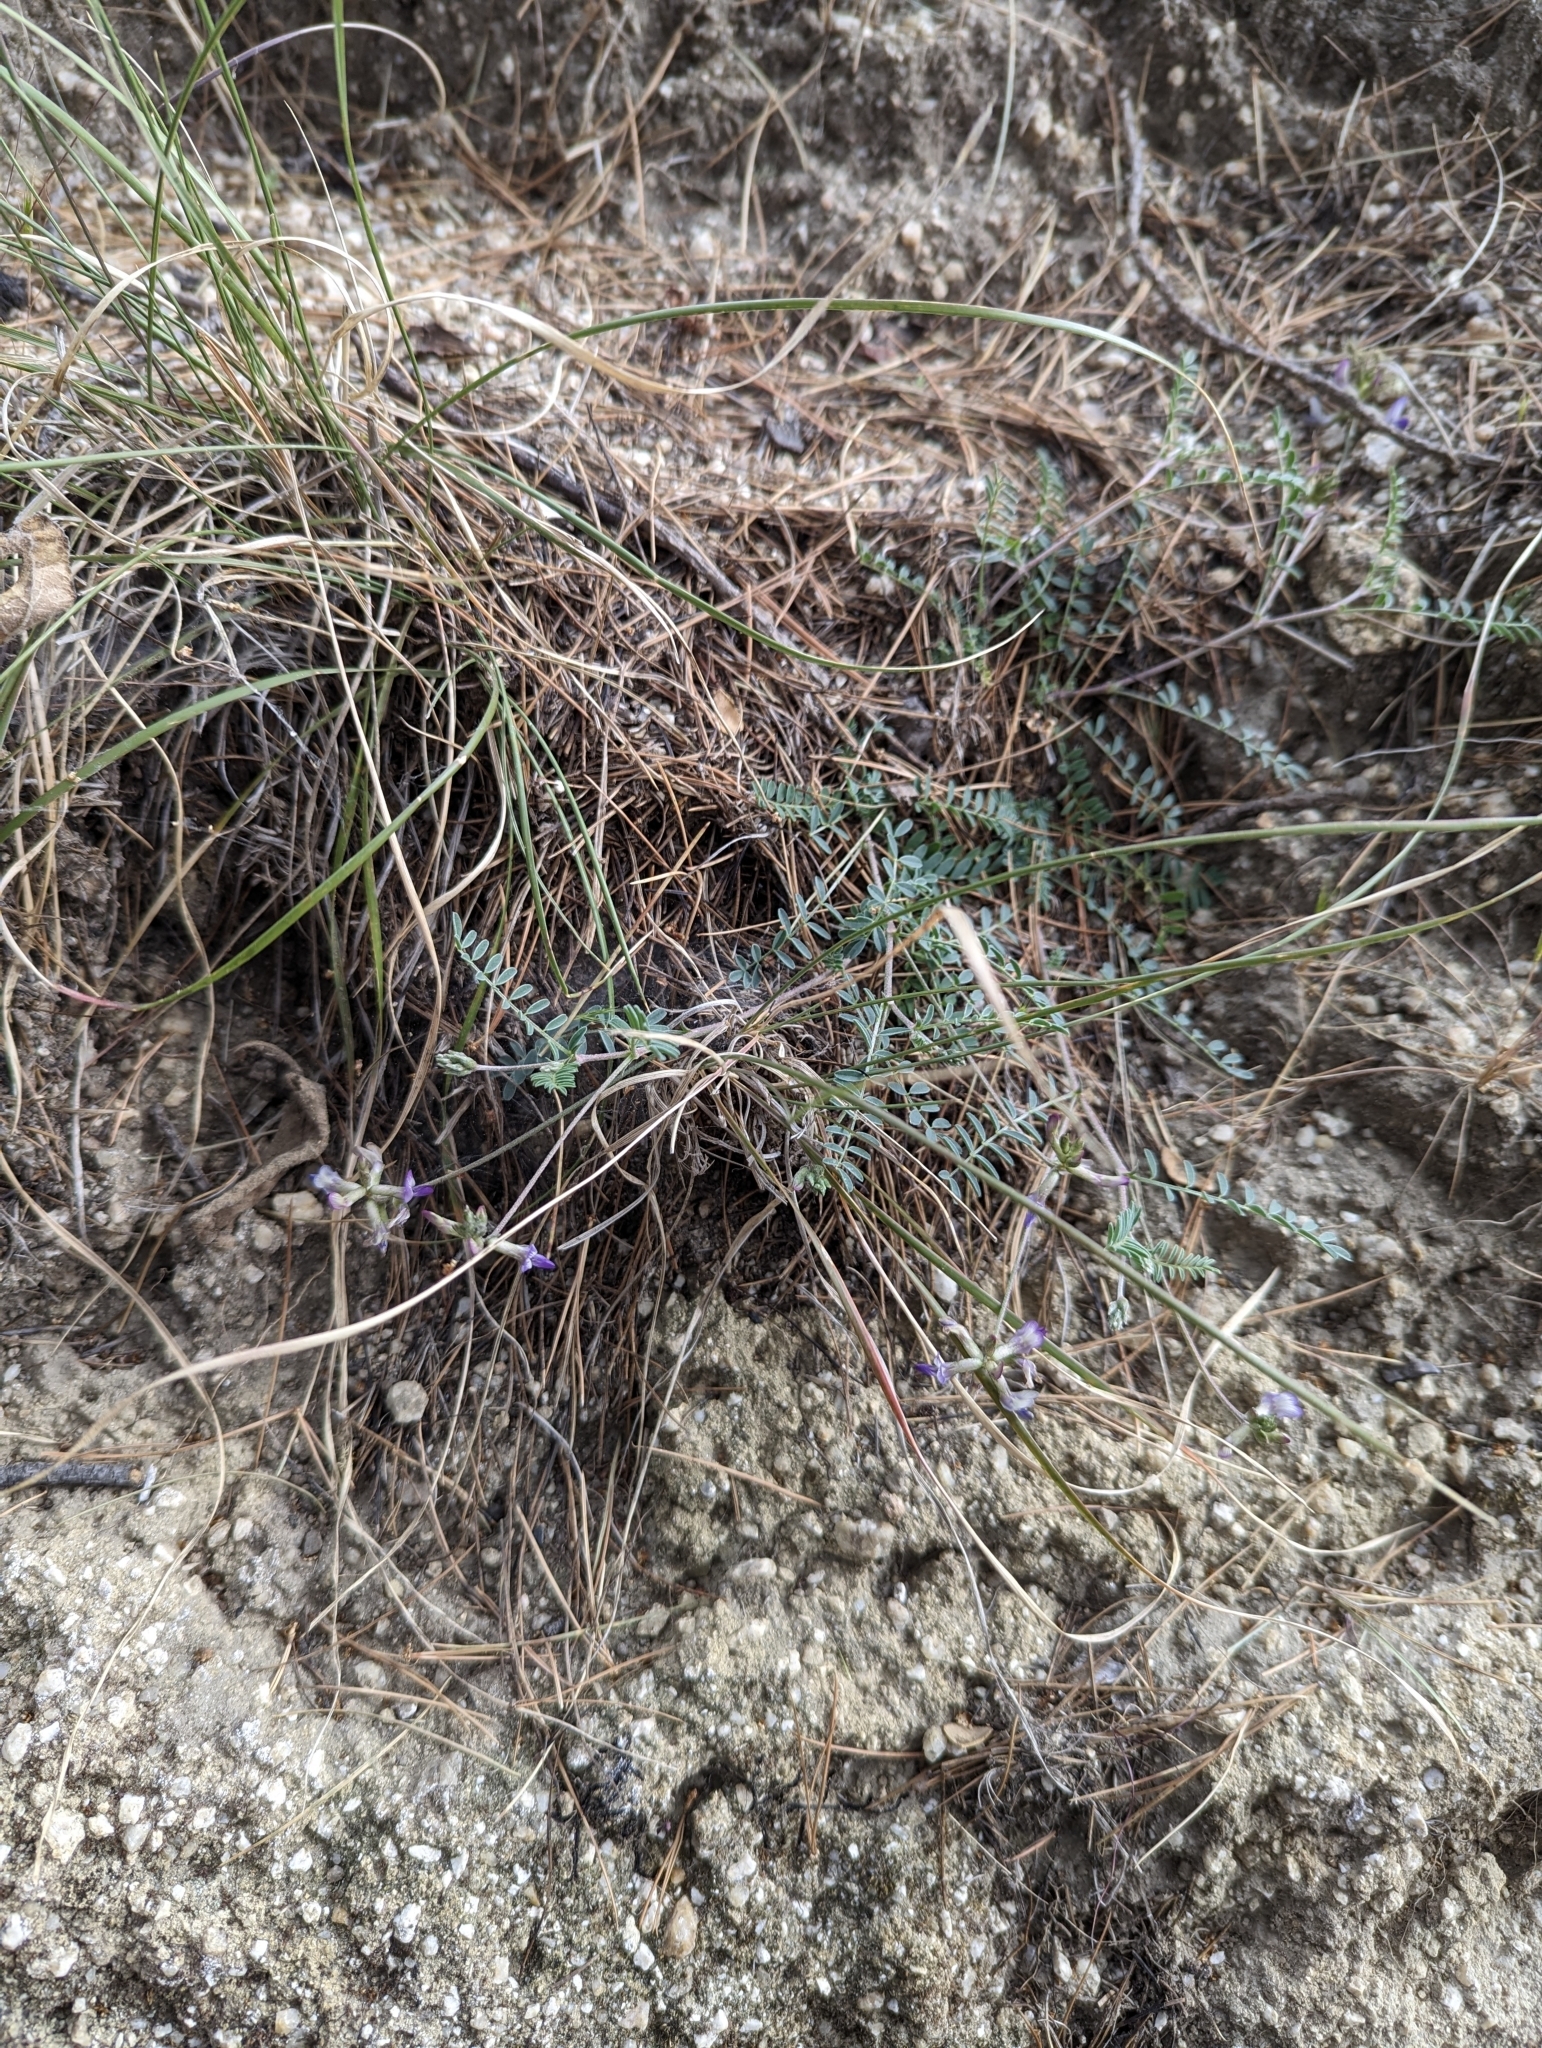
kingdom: Plantae
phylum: Tracheophyta
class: Magnoliopsida
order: Fabales
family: Fabaceae
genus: Astragalus
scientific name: Astragalus francisquitensis
